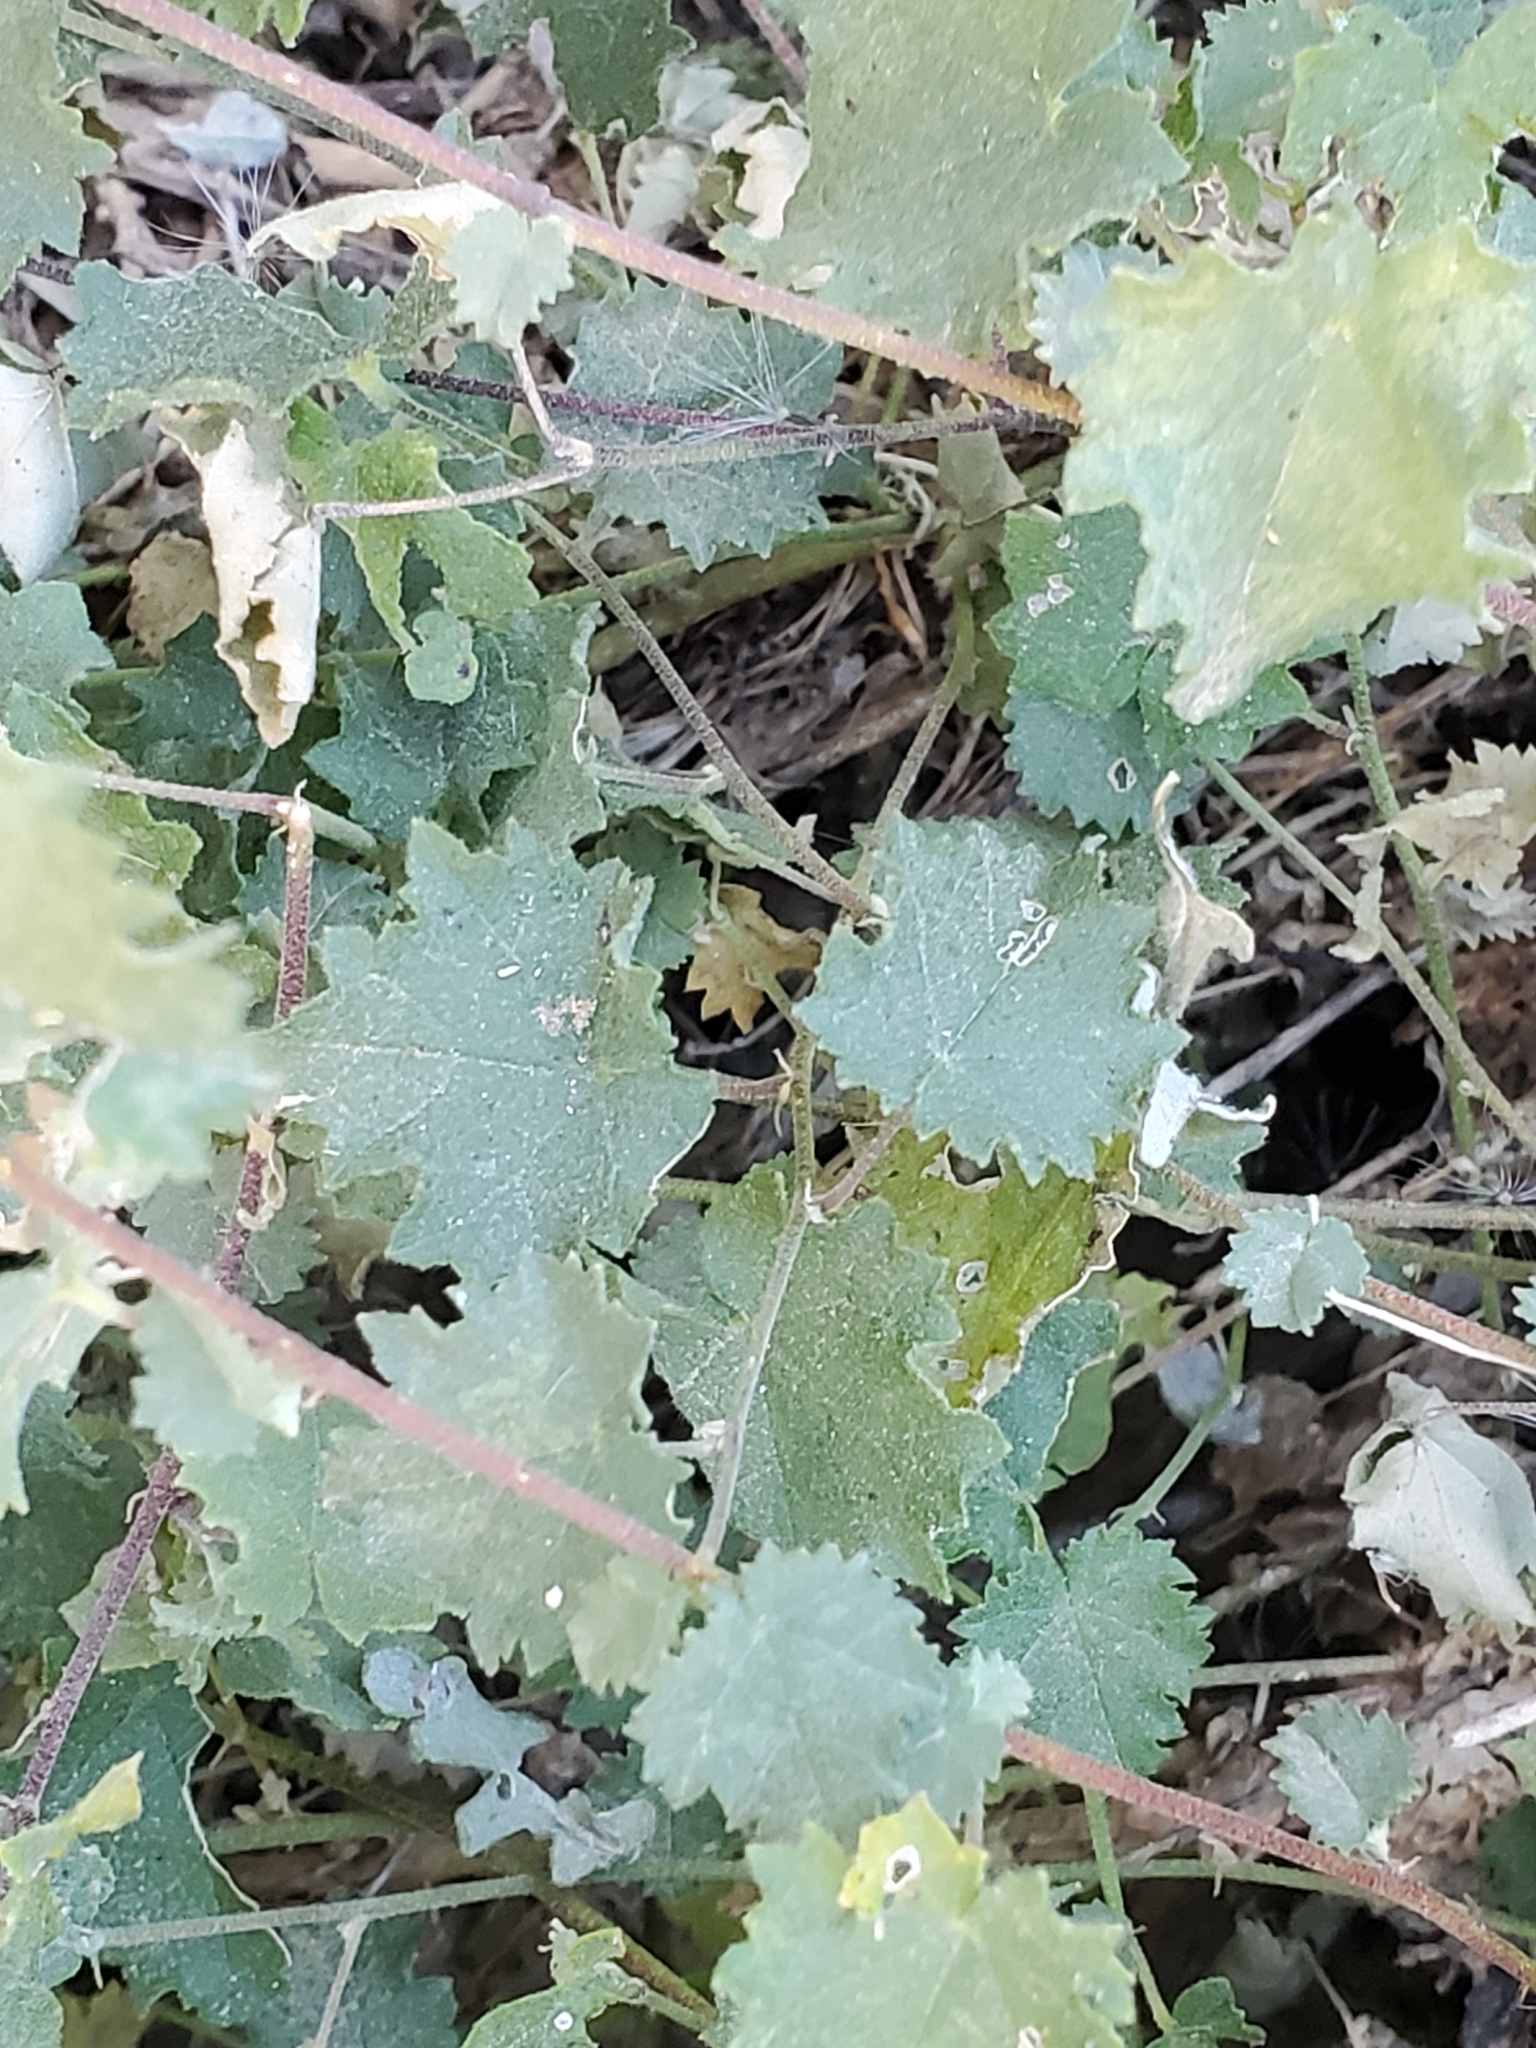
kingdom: Plantae
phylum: Tracheophyta
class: Magnoliopsida
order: Malvales
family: Malvaceae
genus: Abutilon
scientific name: Abutilon parvulum
